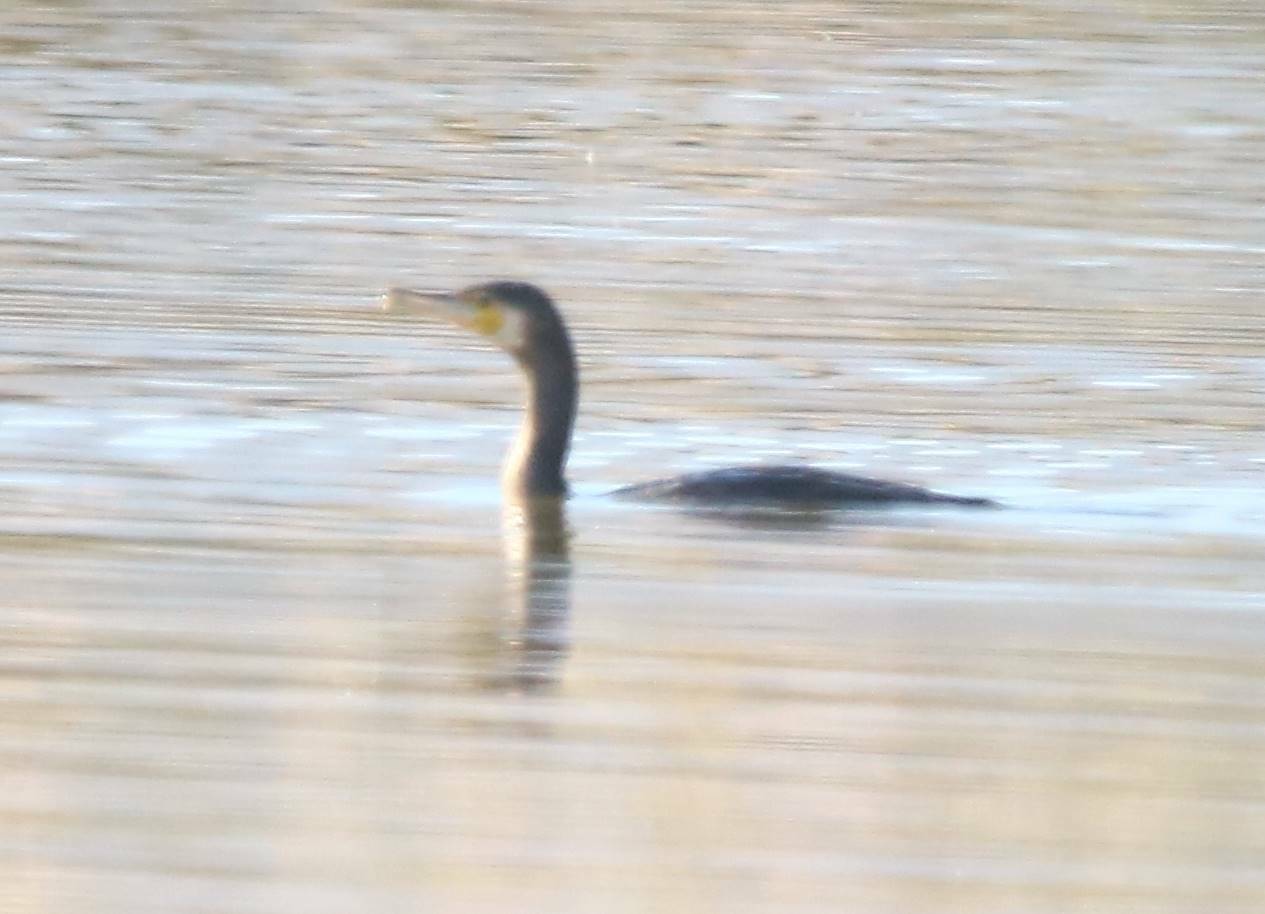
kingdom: Animalia
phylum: Chordata
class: Aves
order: Suliformes
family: Phalacrocoracidae
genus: Phalacrocorax
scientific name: Phalacrocorax carbo
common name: Great cormorant
